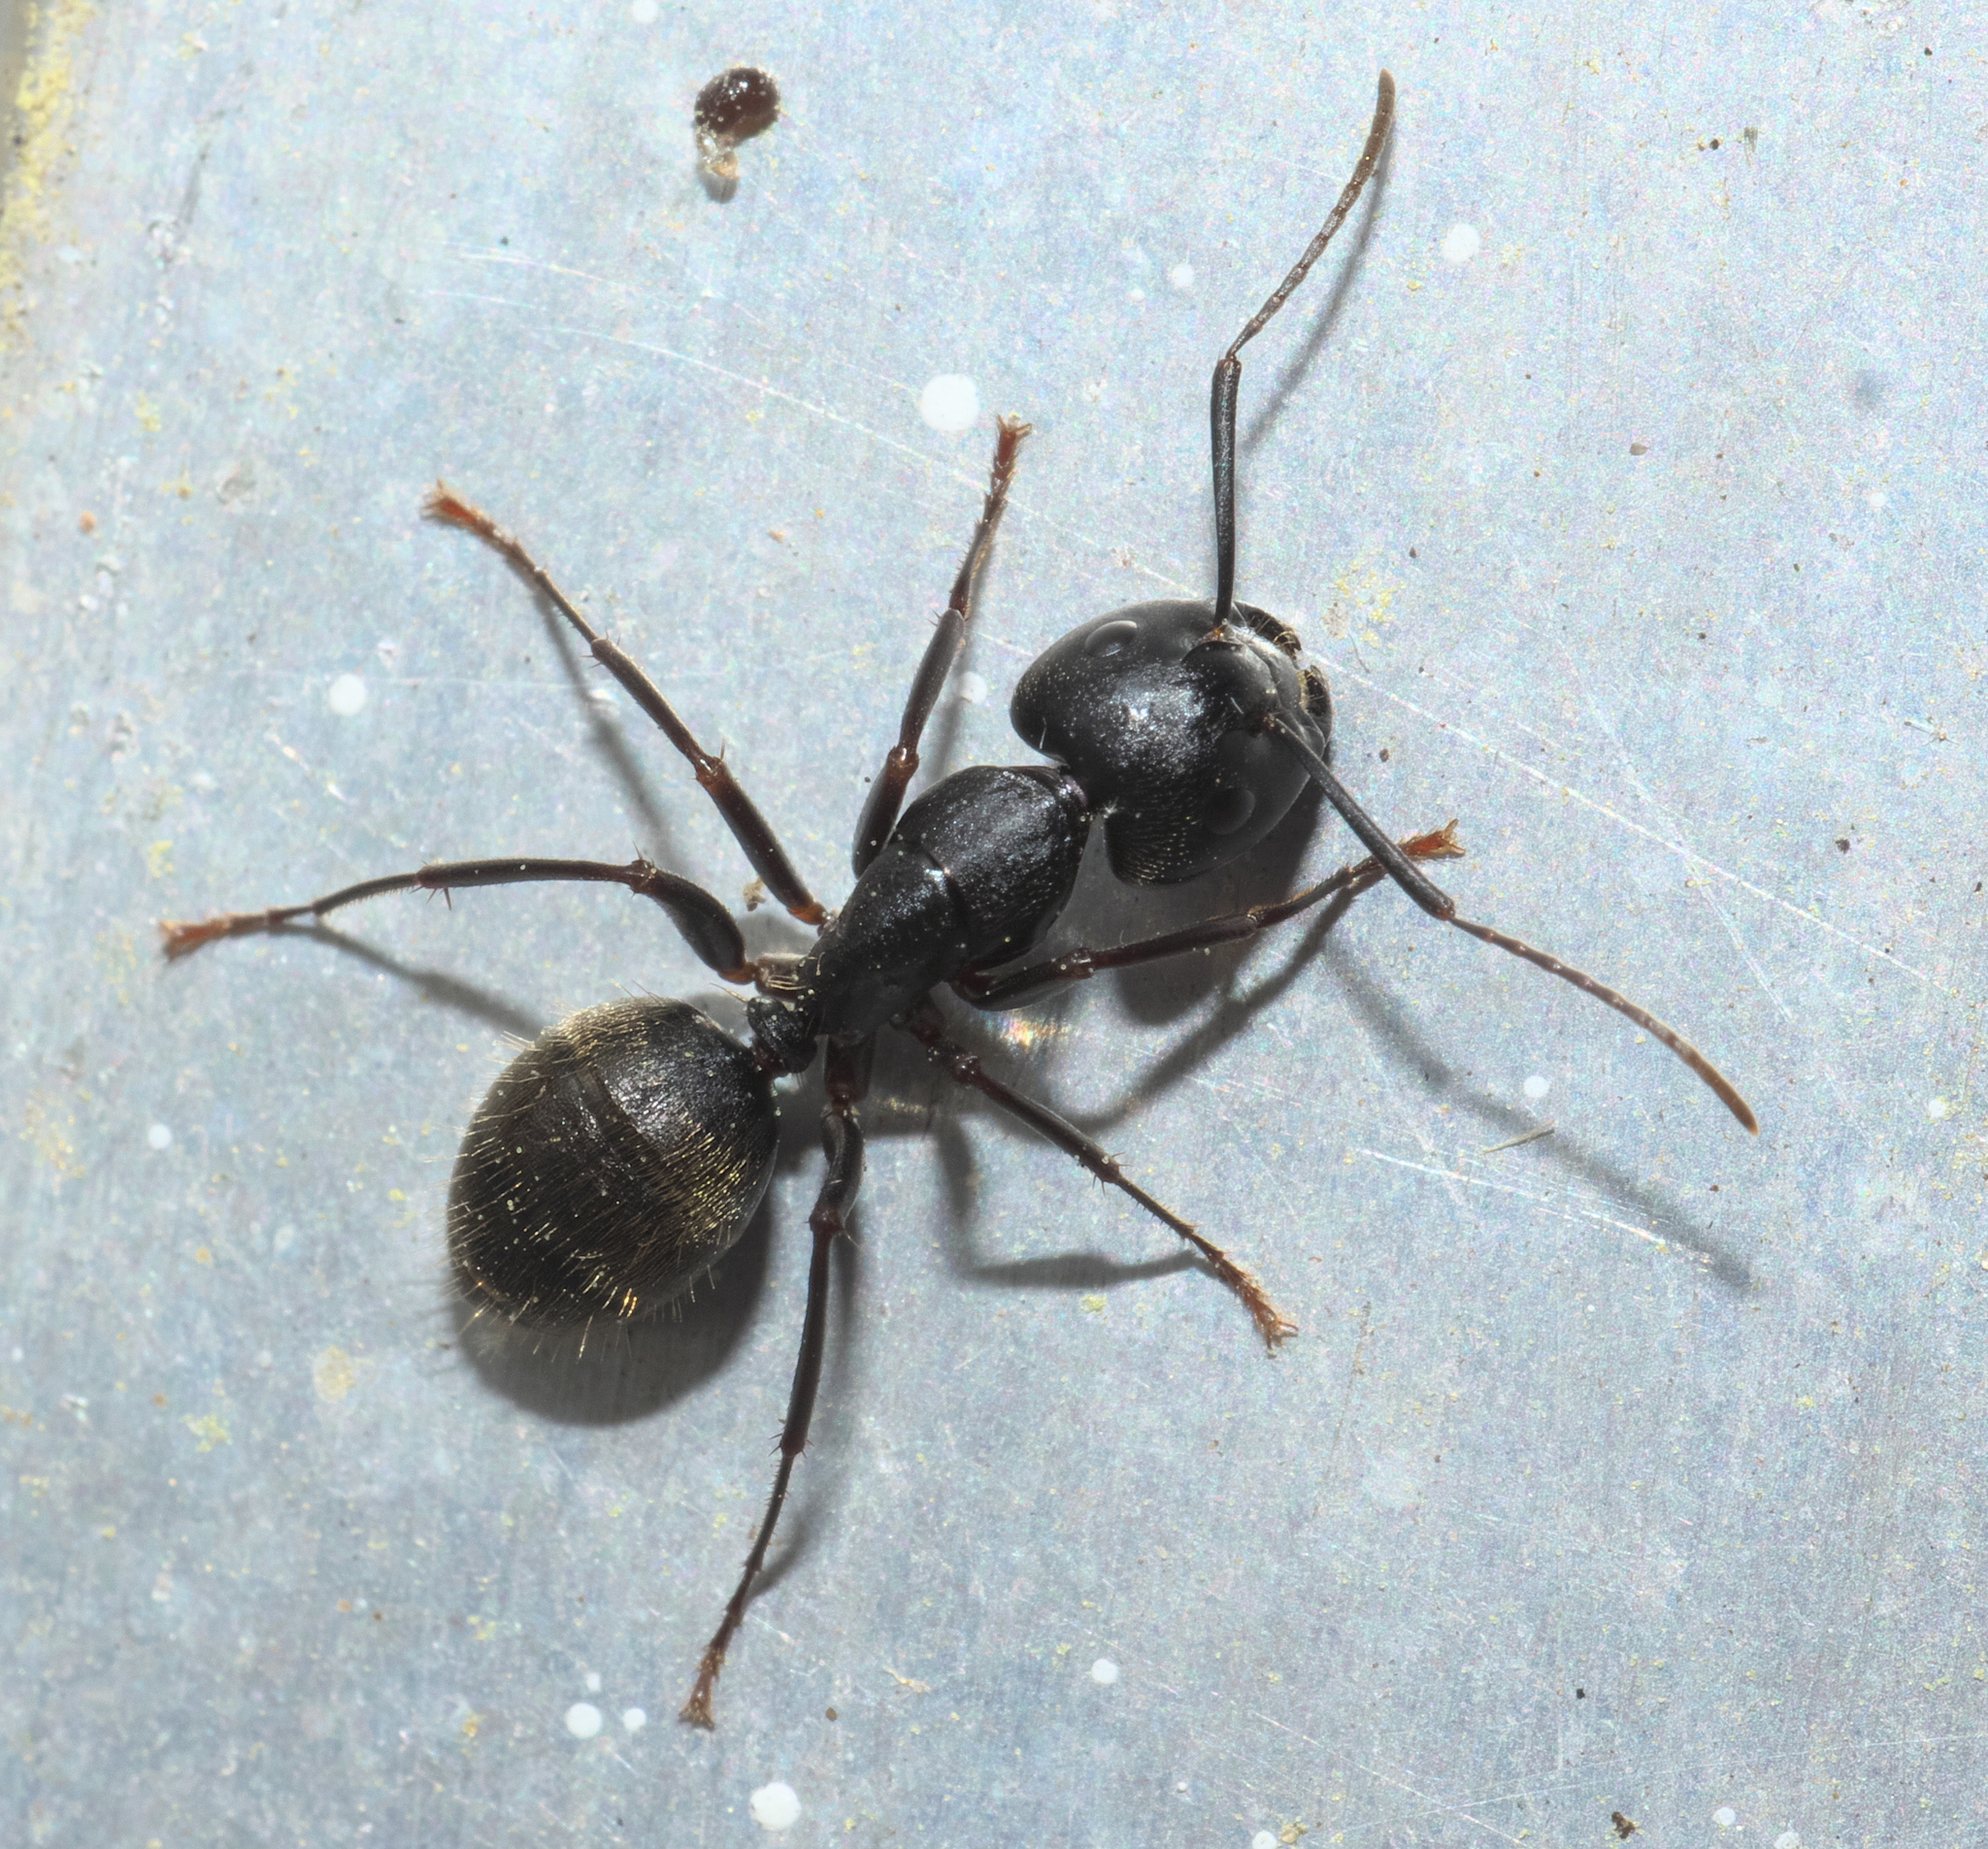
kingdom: Animalia
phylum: Arthropoda
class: Insecta
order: Hymenoptera
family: Formicidae
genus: Camponotus
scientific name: Camponotus pennsylvanicus
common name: Black carpenter ant
